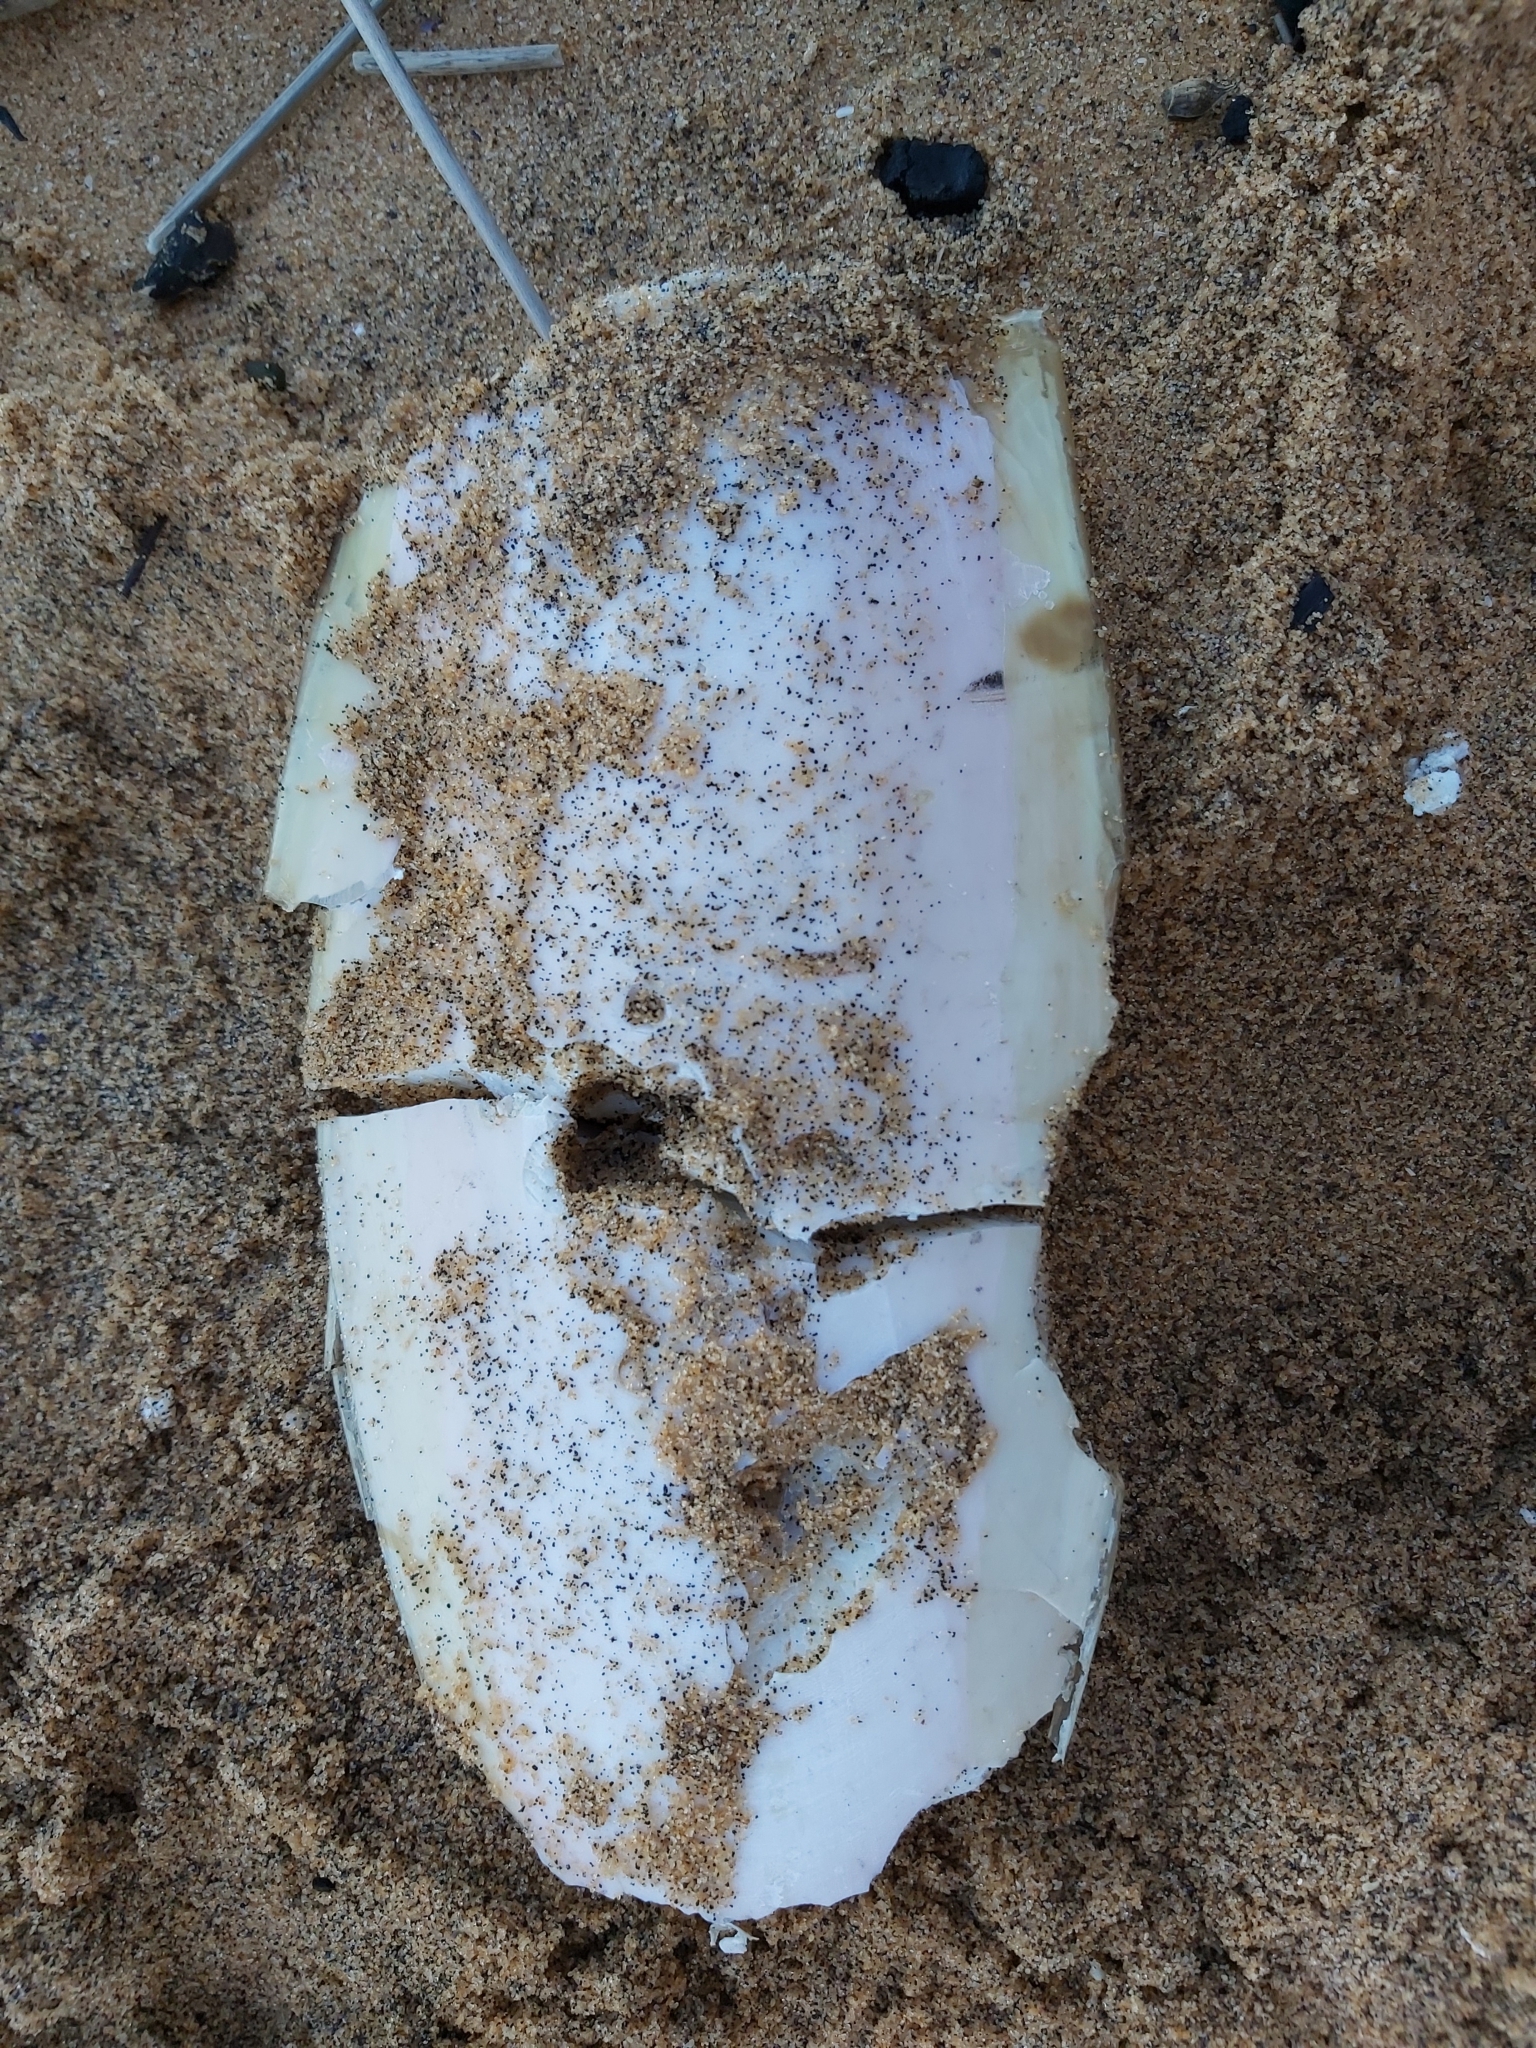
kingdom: Animalia
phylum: Mollusca
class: Cephalopoda
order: Sepiida
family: Sepiidae
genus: Ascarosepion
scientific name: Ascarosepion apama
